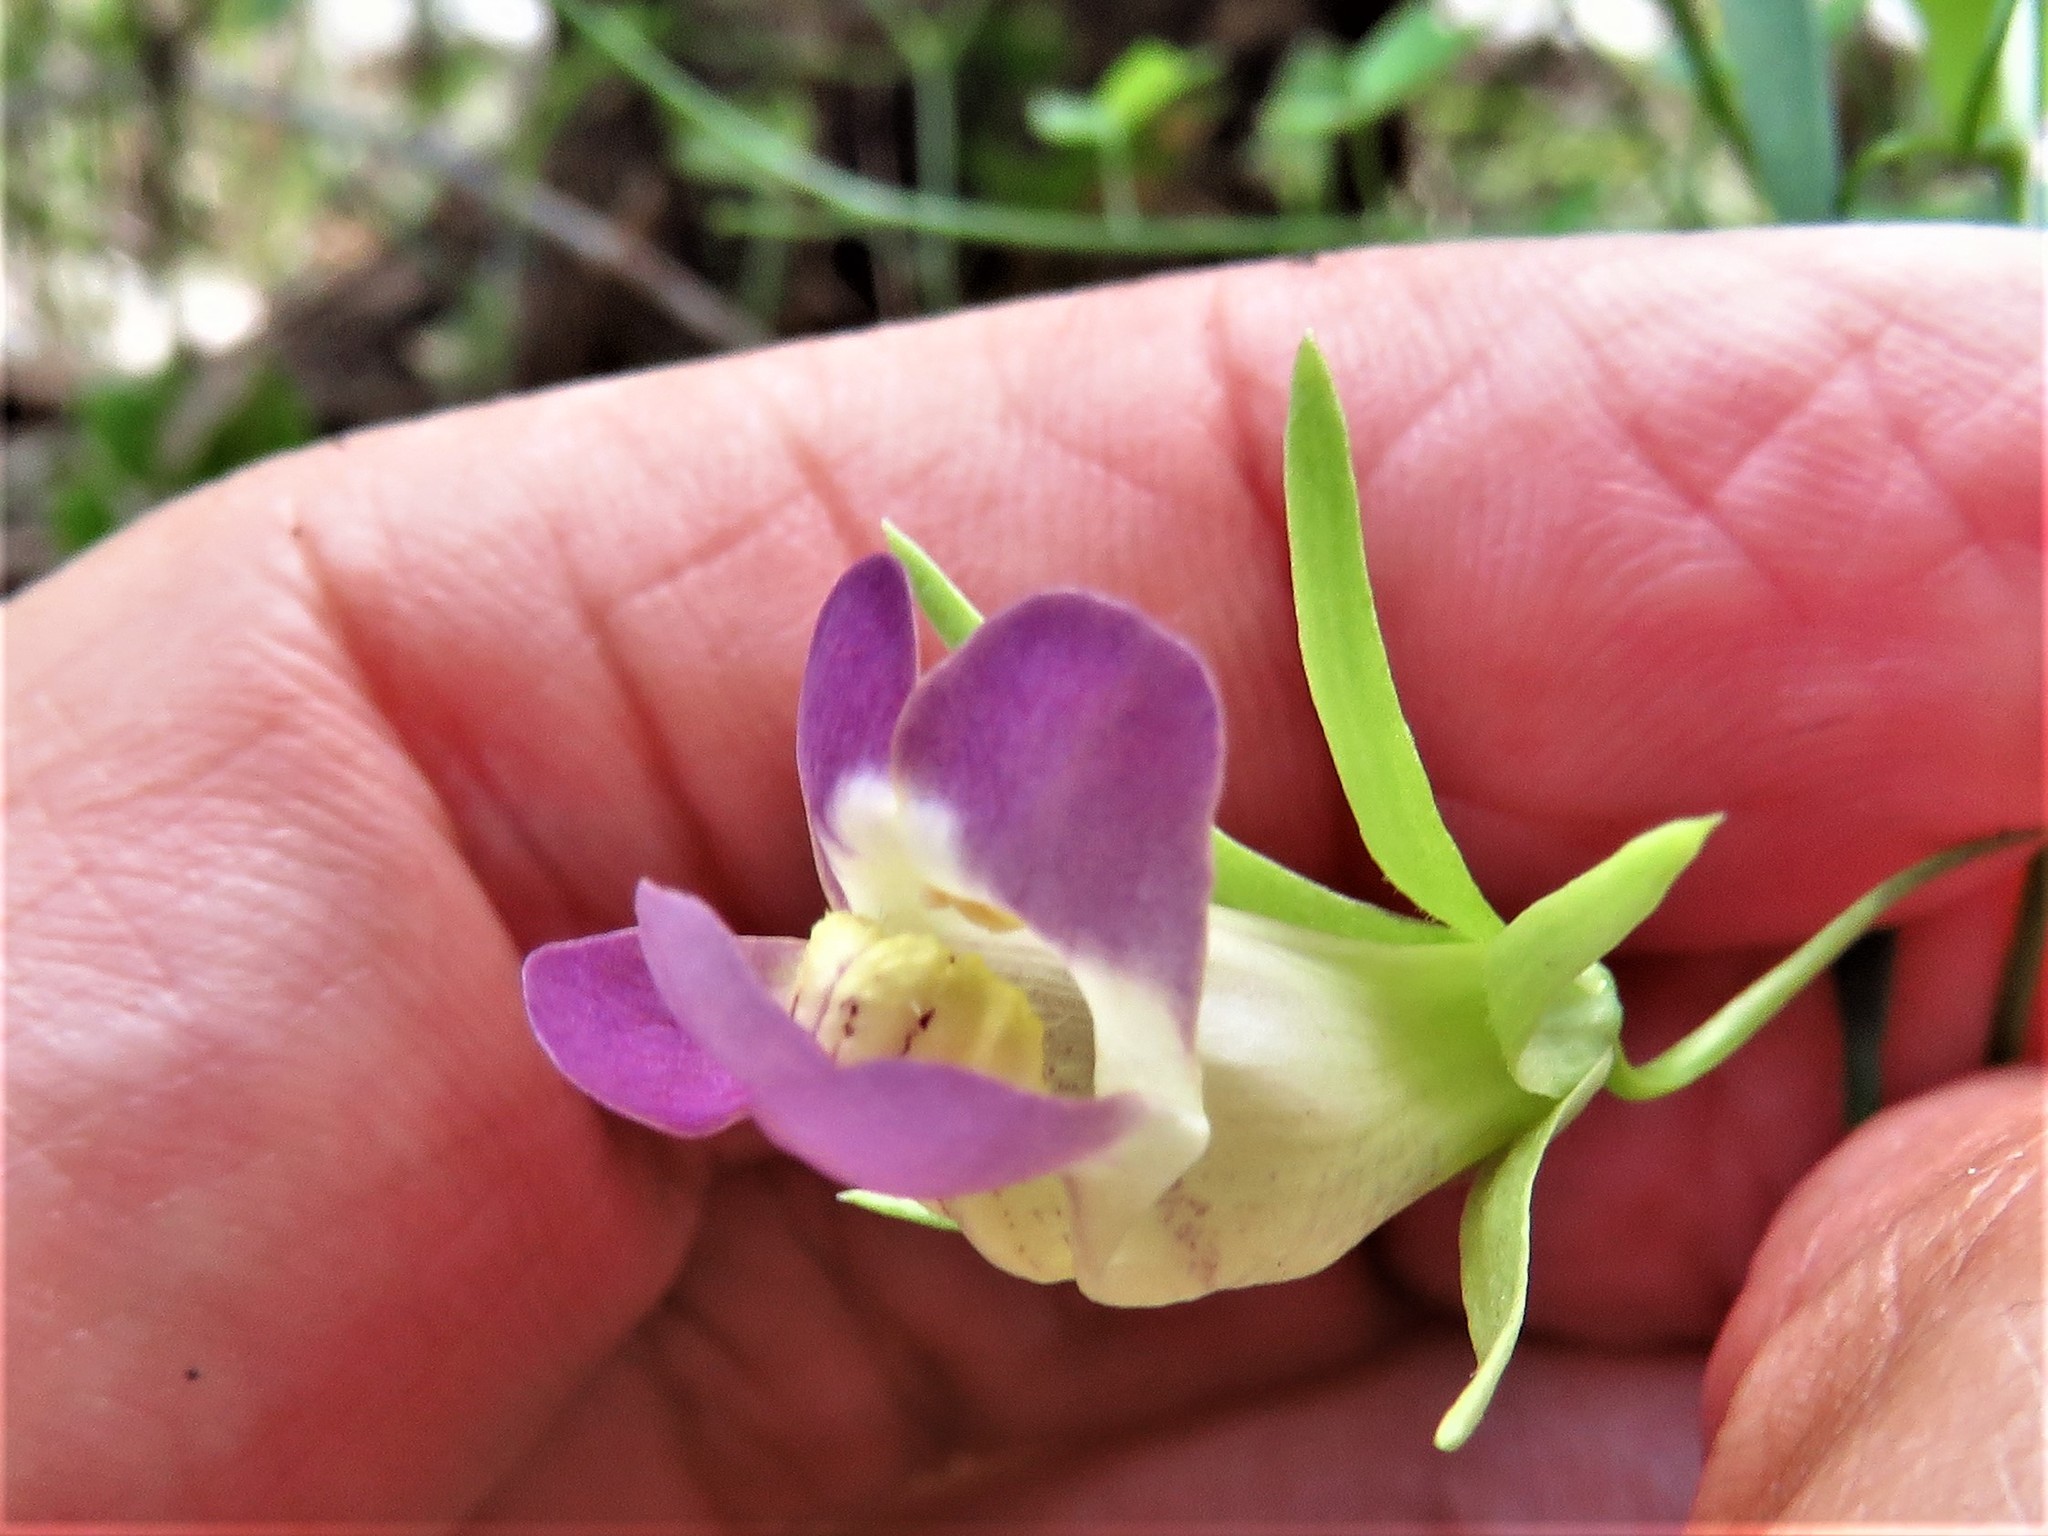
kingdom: Plantae
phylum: Tracheophyta
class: Magnoliopsida
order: Lamiales
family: Plantaginaceae
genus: Maurandella
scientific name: Maurandella antirrhiniflora
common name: Violet twining-snapdragon
